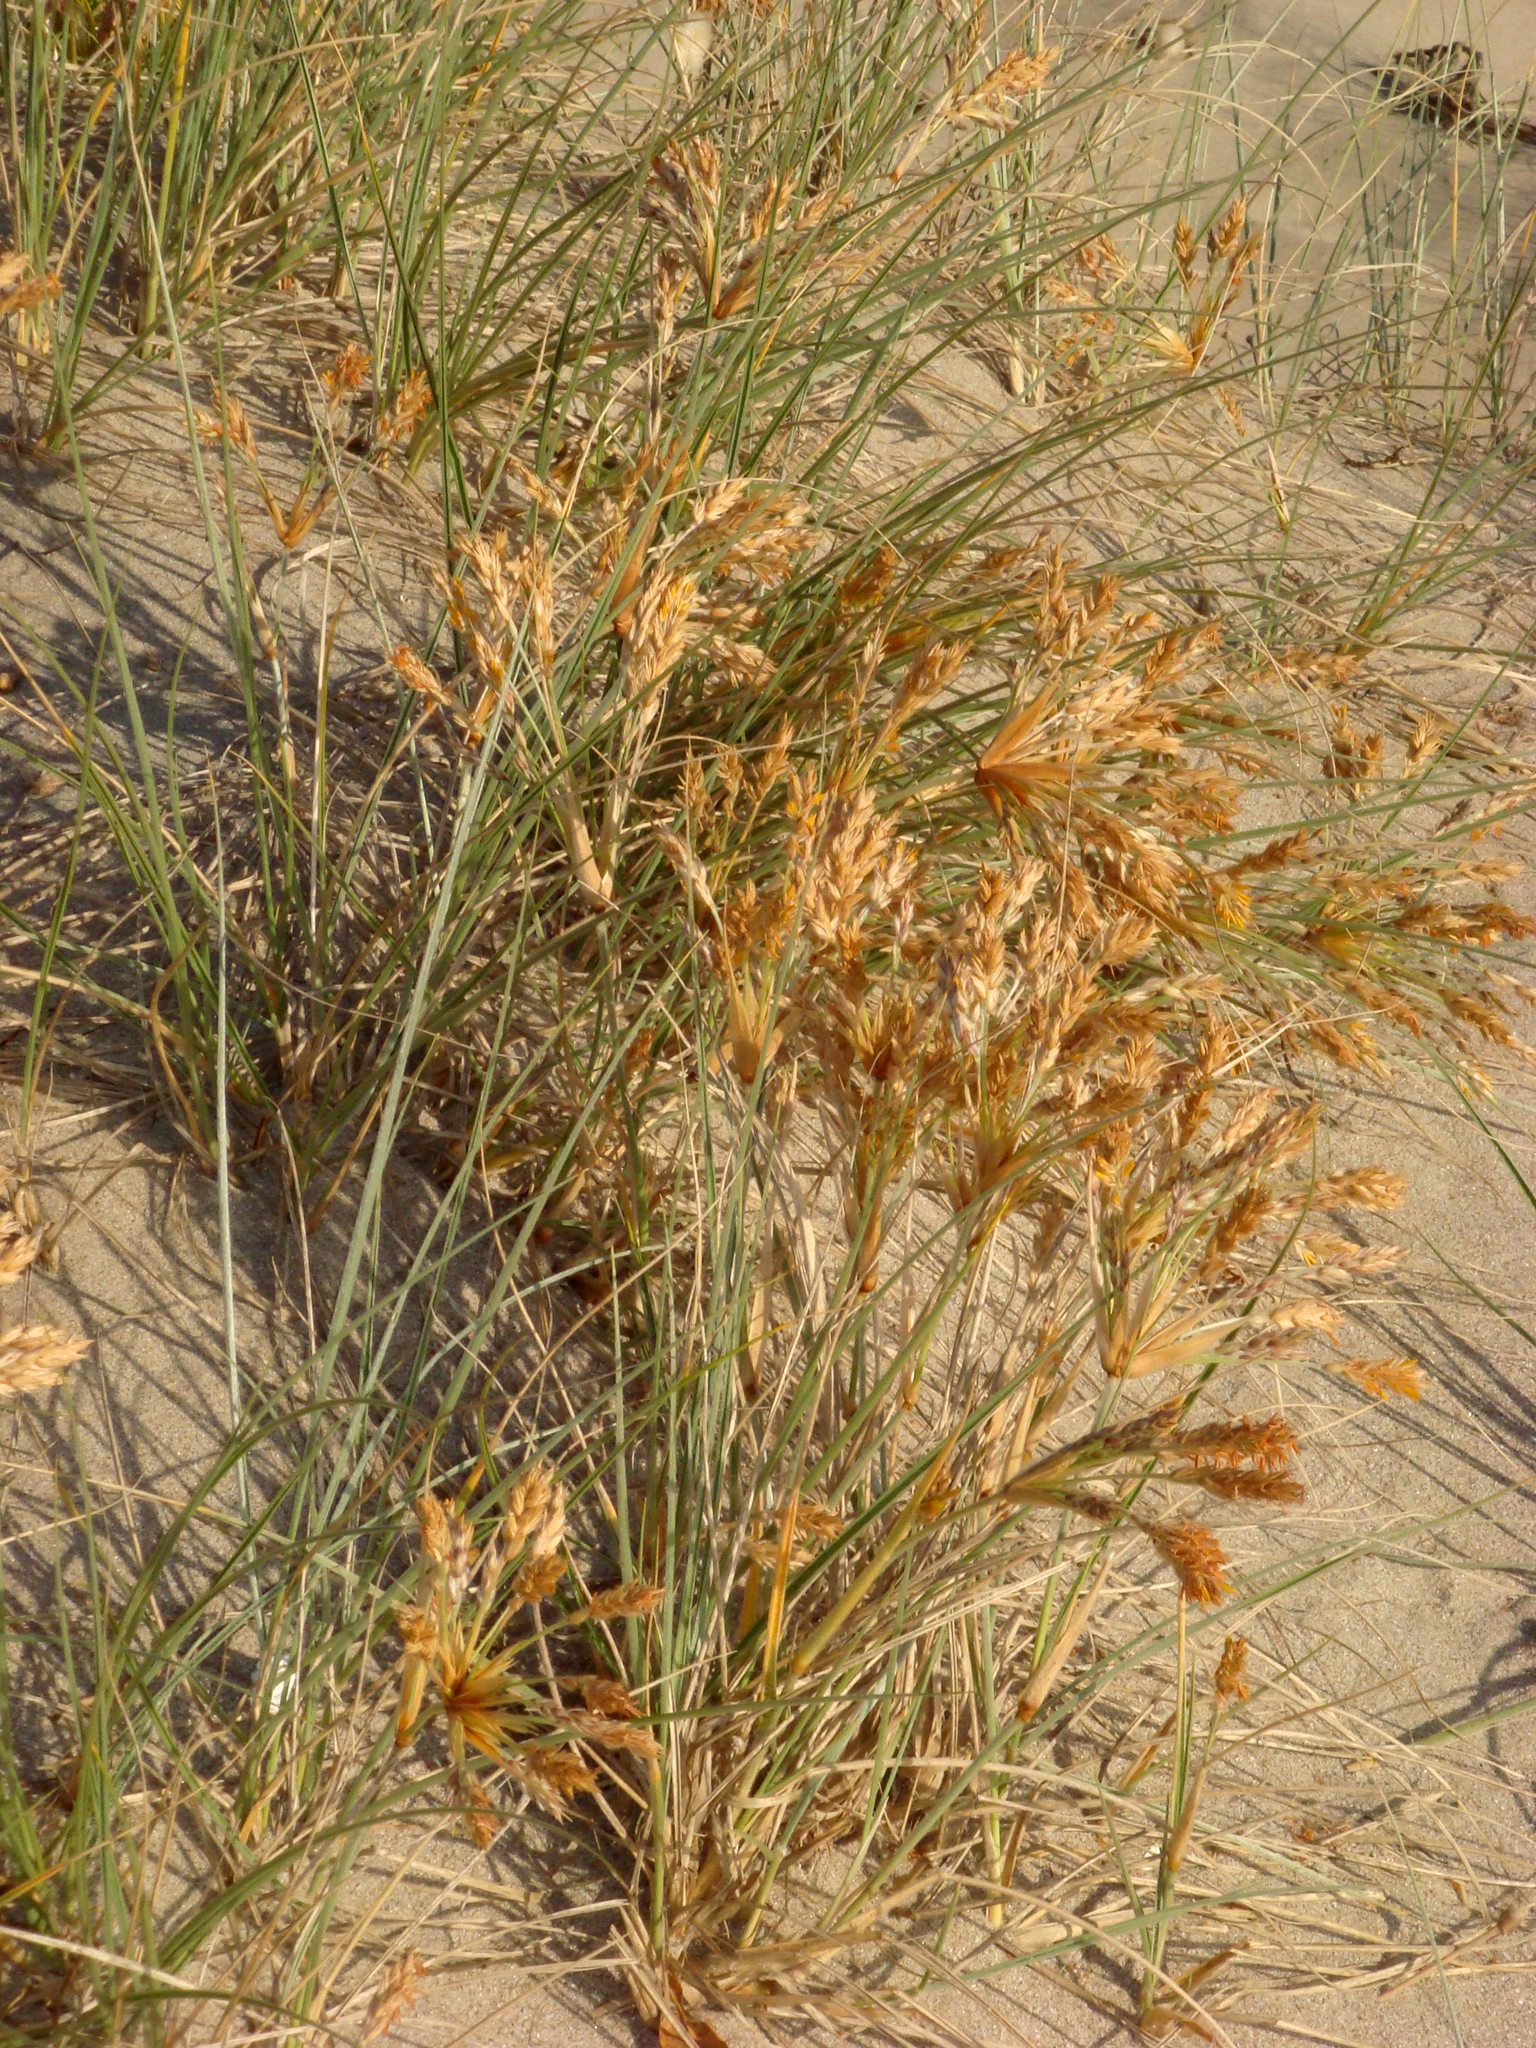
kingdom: Plantae
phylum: Tracheophyta
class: Liliopsida
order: Poales
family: Poaceae
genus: Spinifex
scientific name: Spinifex sericeus
